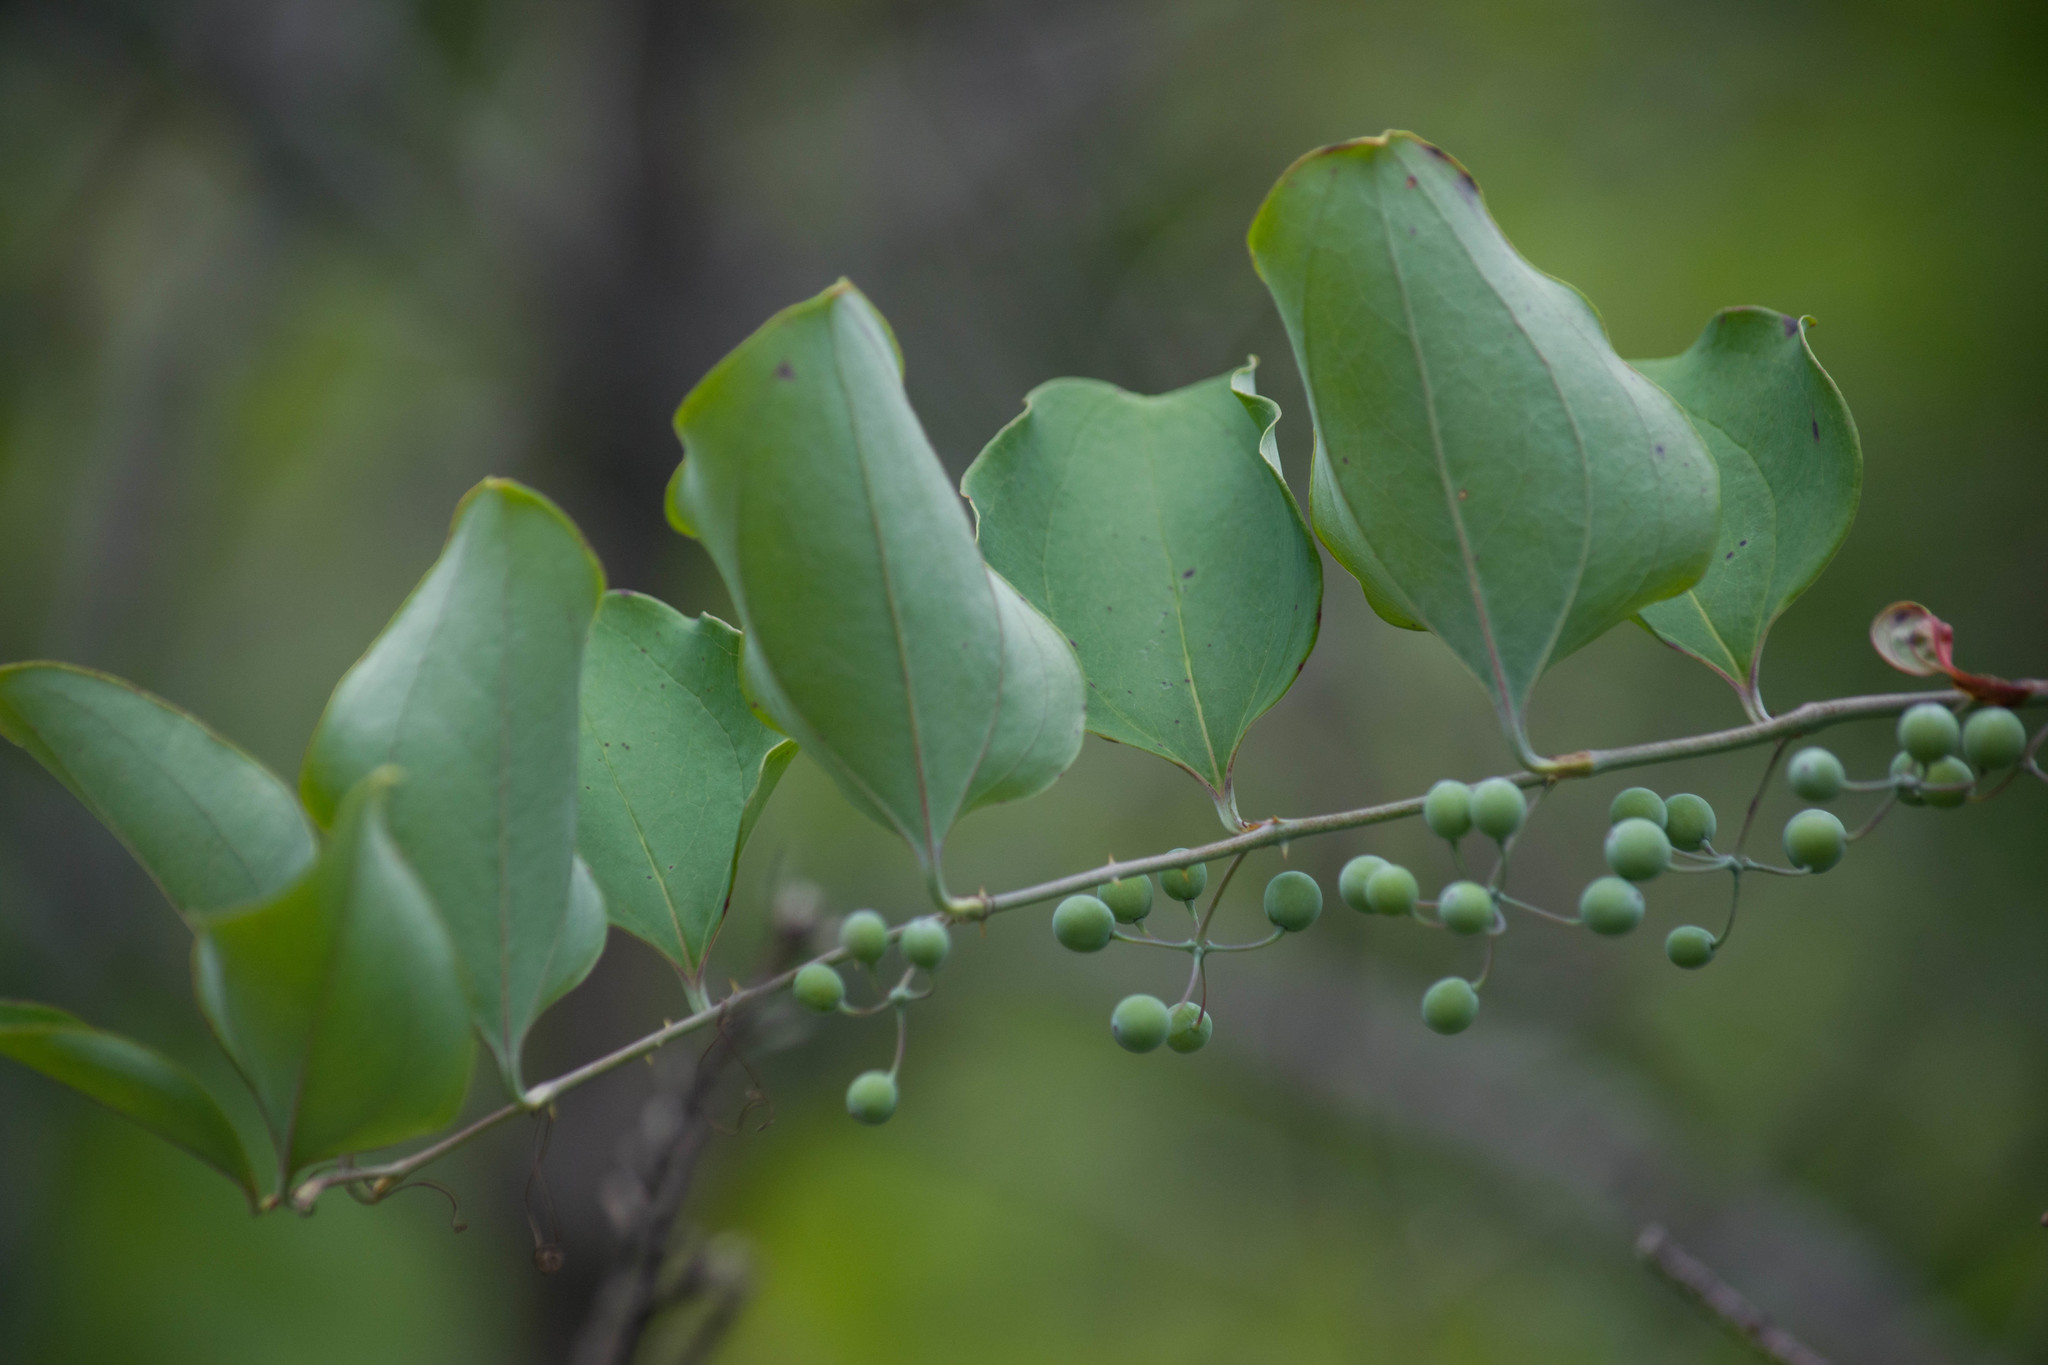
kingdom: Plantae
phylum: Tracheophyta
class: Liliopsida
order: Liliales
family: Smilacaceae
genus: Smilax
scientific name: Smilax glauca
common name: Cat greenbrier
